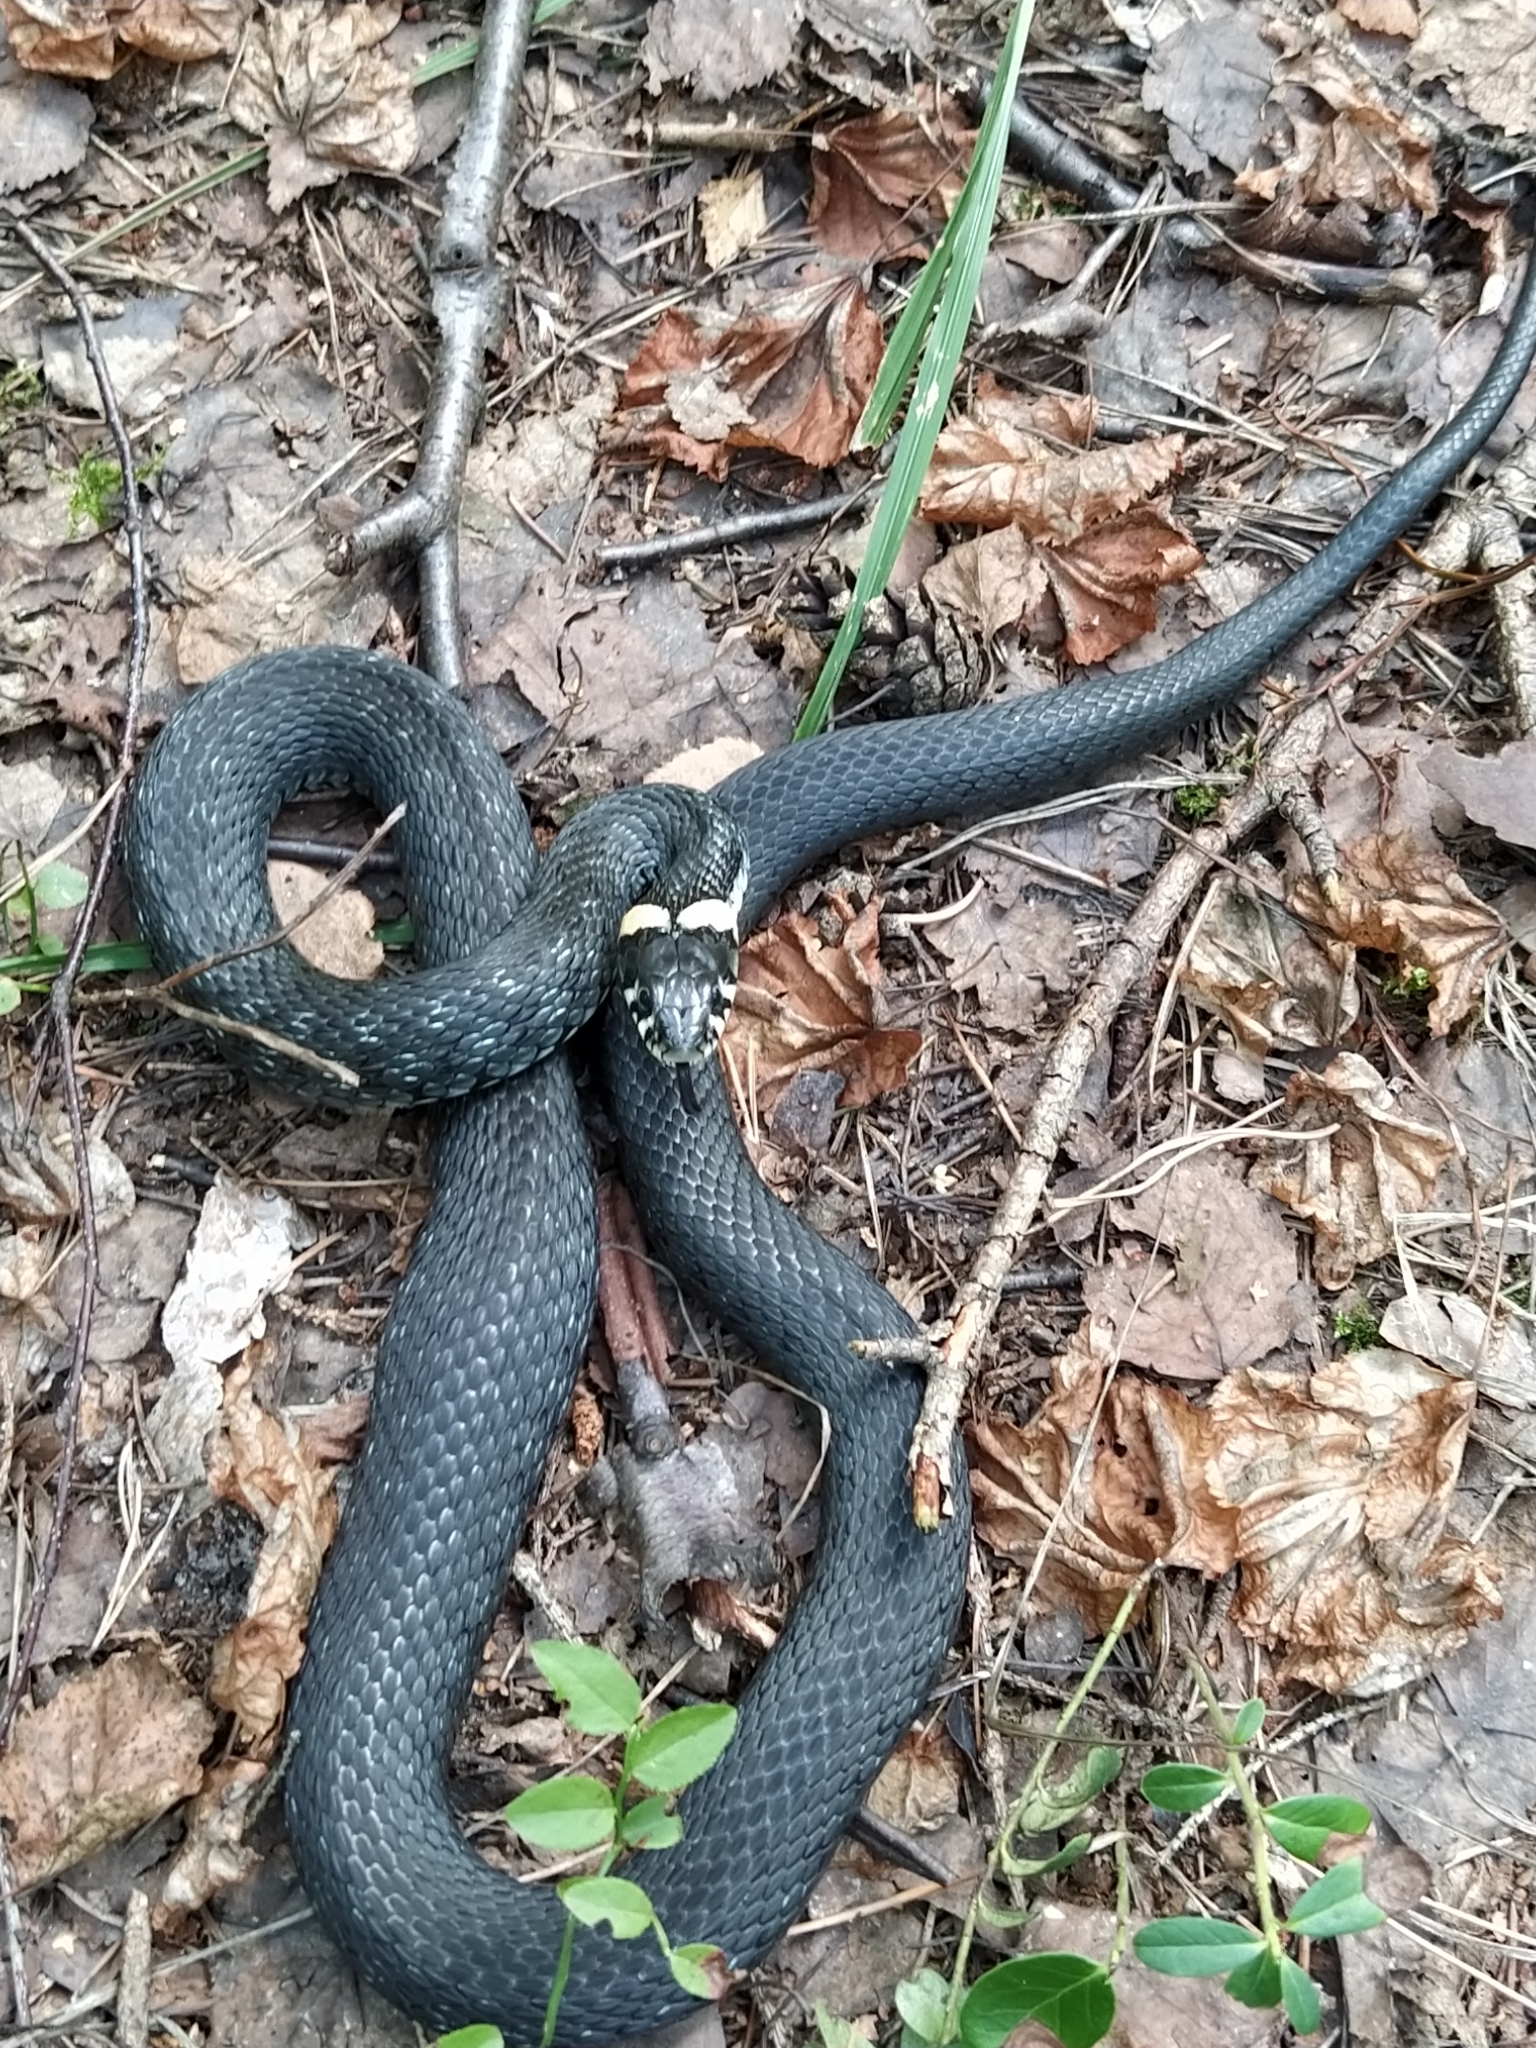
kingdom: Animalia
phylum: Chordata
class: Squamata
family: Colubridae
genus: Natrix
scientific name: Natrix natrix
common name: Grass snake
